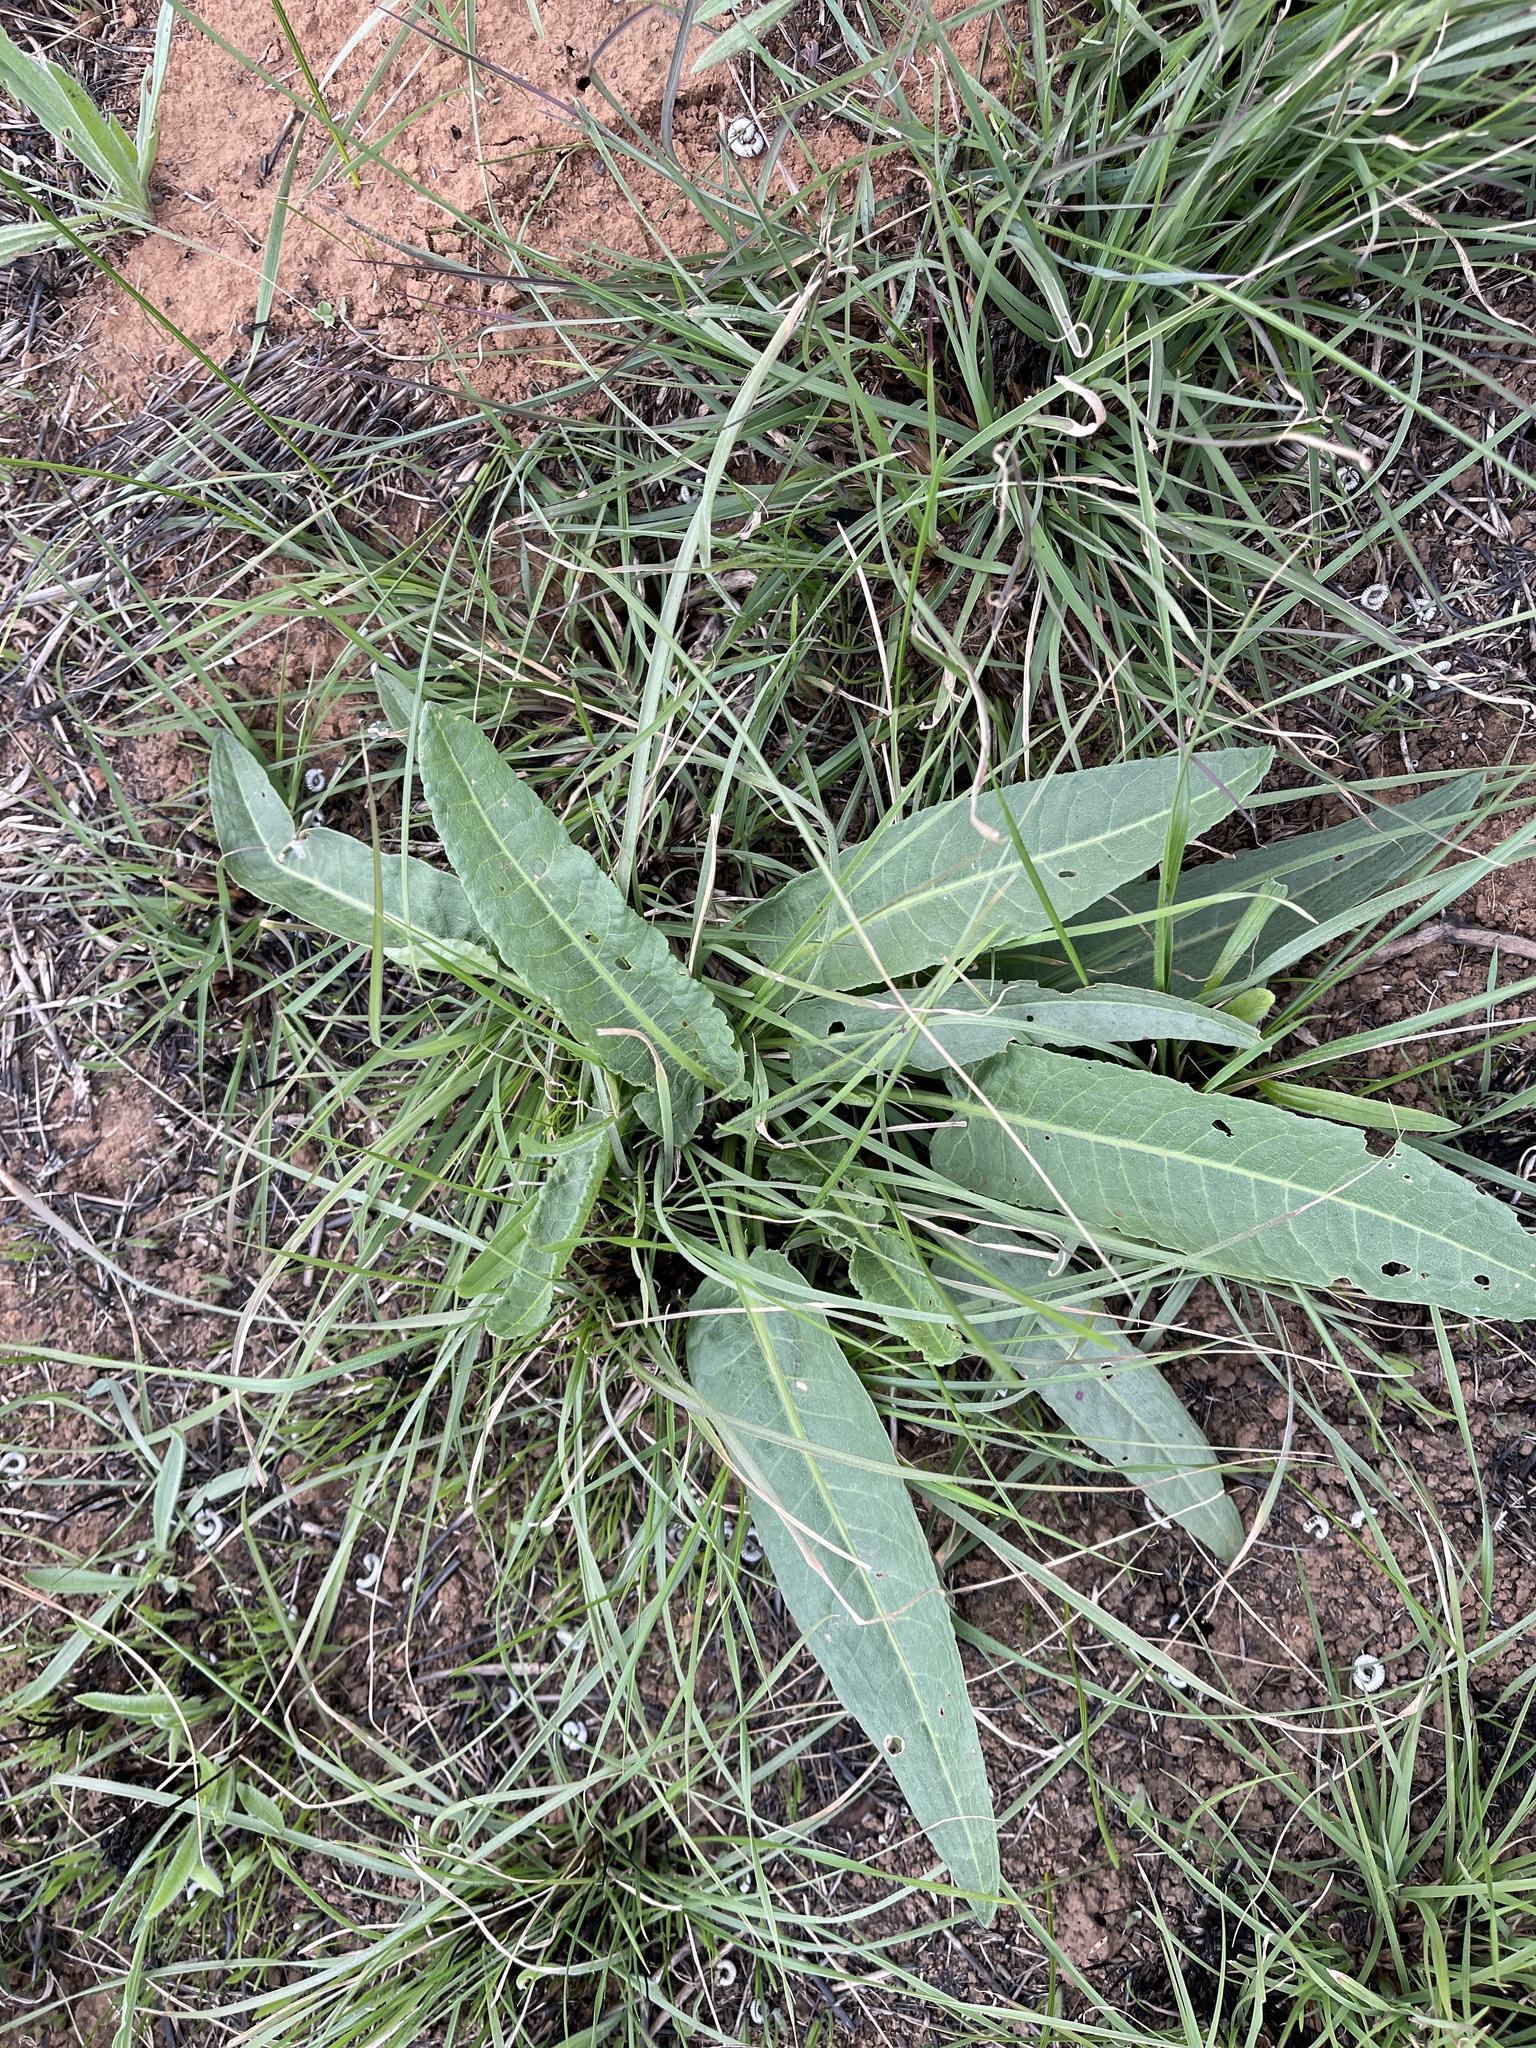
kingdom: Plantae
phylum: Tracheophyta
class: Magnoliopsida
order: Caryophyllales
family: Polygonaceae
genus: Rumex
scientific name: Rumex brownii
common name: Hooked dock
